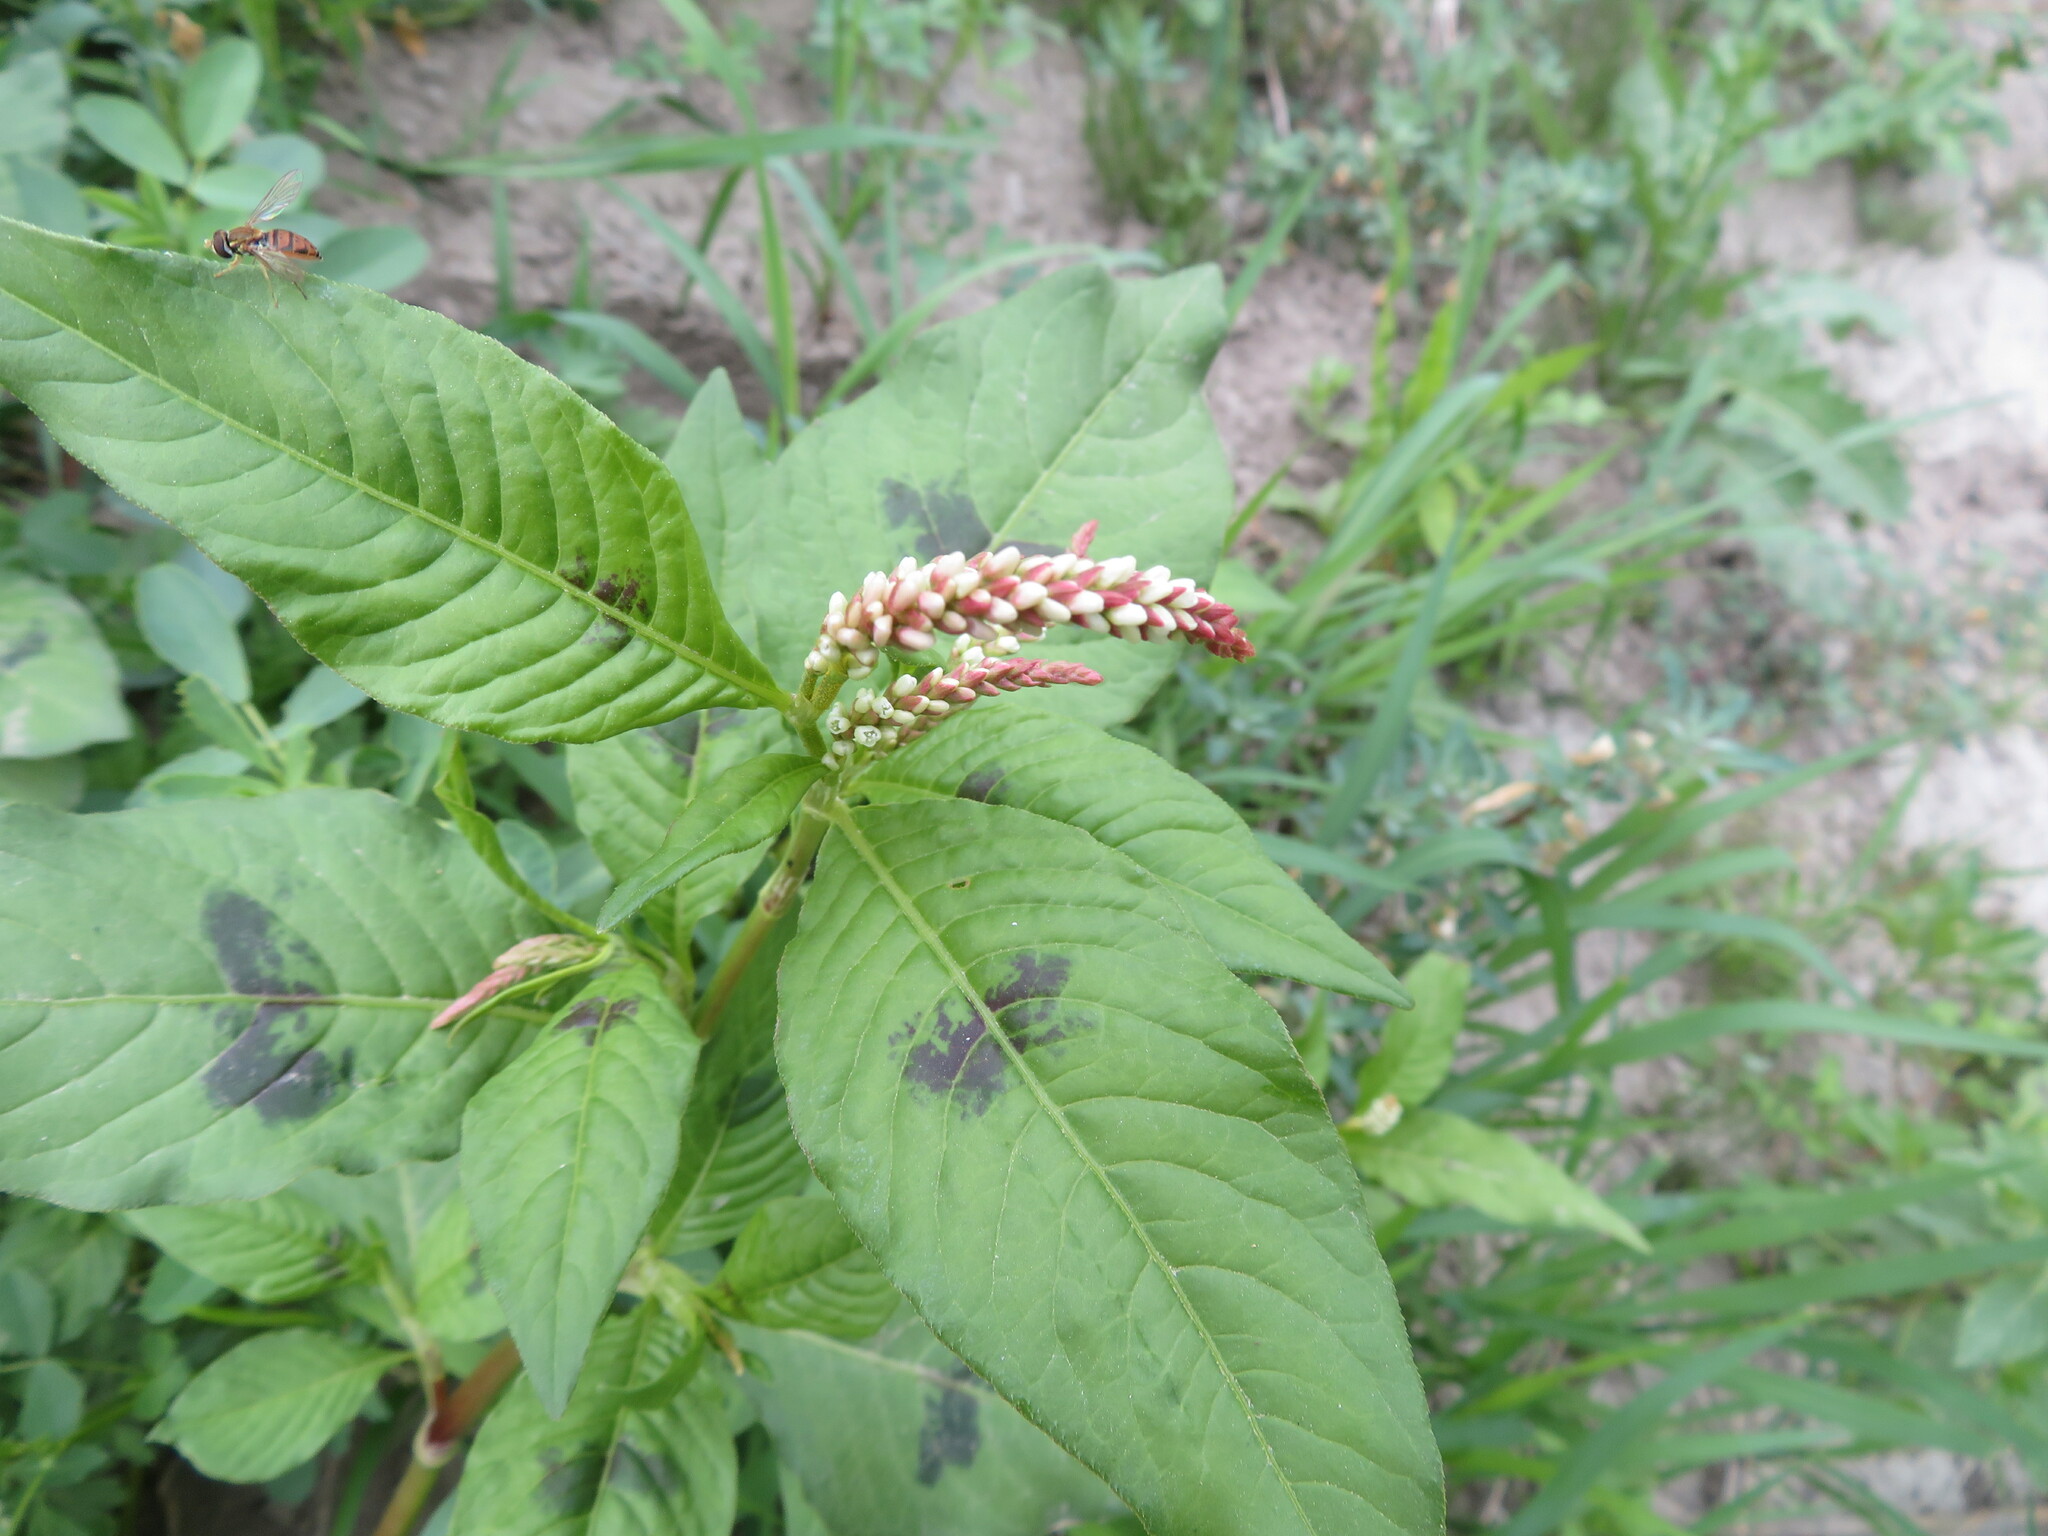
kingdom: Plantae
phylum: Tracheophyta
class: Magnoliopsida
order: Caryophyllales
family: Polygonaceae
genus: Persicaria
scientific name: Persicaria lapathifolia
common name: Curlytop knotweed
